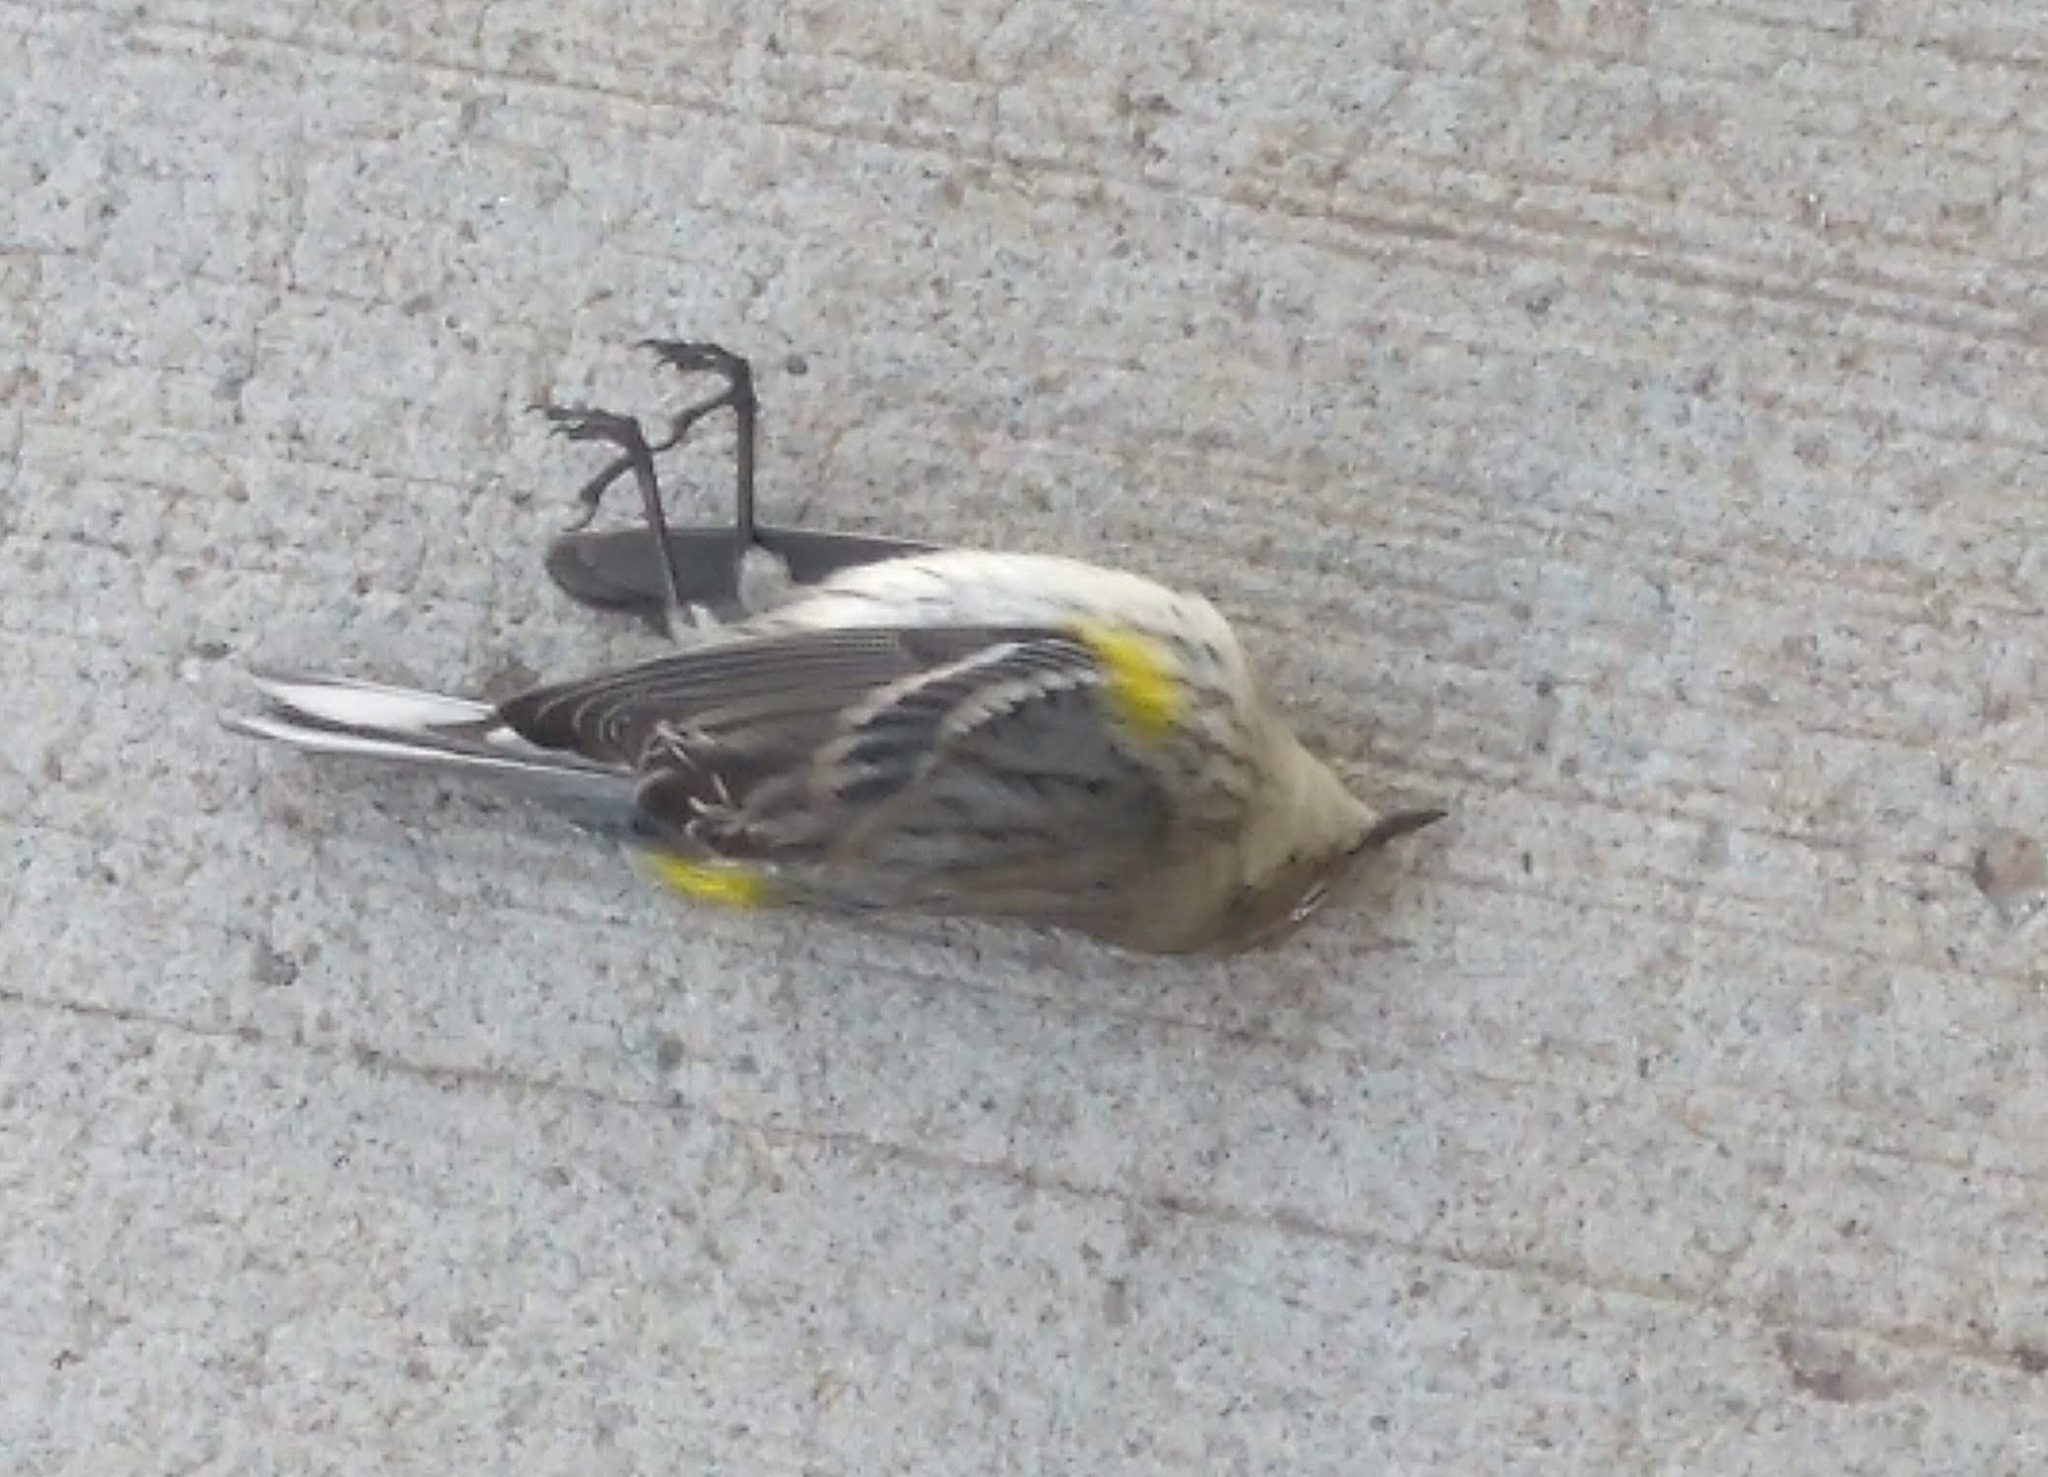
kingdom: Animalia
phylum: Chordata
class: Aves
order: Passeriformes
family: Parulidae
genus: Setophaga
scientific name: Setophaga coronata
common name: Myrtle warbler
